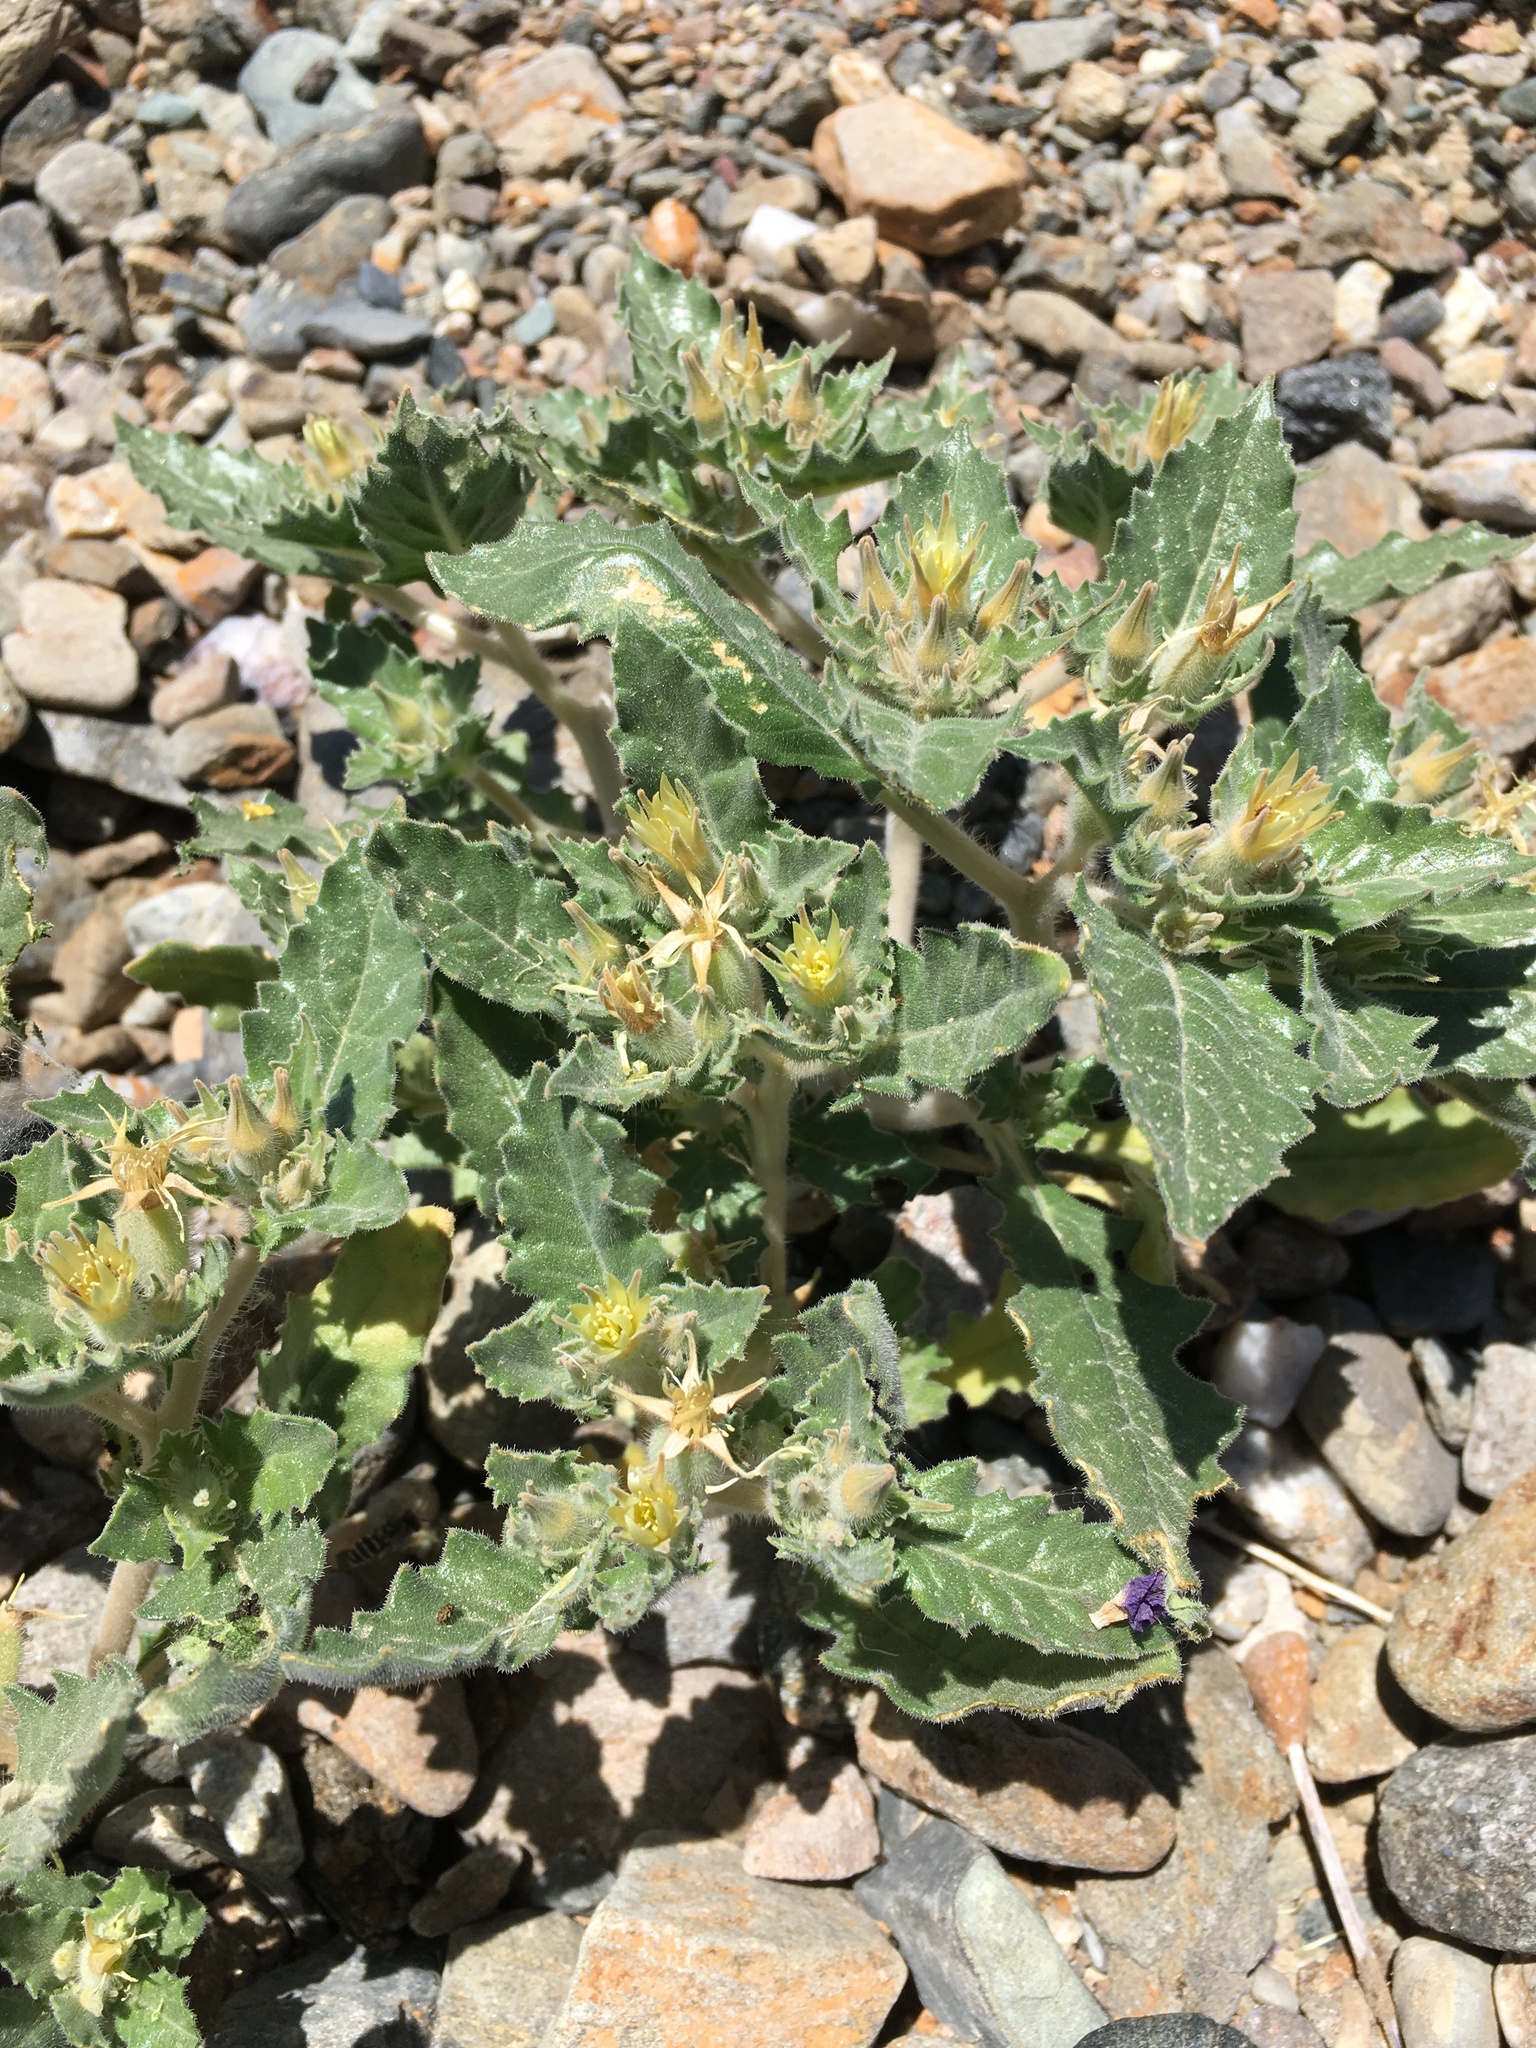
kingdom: Plantae
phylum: Tracheophyta
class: Magnoliopsida
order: Cornales
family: Loasaceae
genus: Mentzelia
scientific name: Mentzelia reflexa
